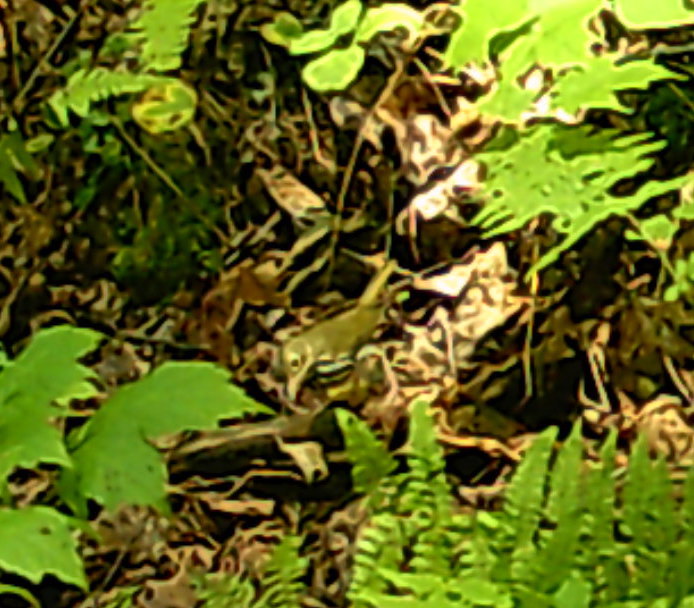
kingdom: Animalia
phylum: Chordata
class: Aves
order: Passeriformes
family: Parulidae
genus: Seiurus
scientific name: Seiurus aurocapilla
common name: Ovenbird
